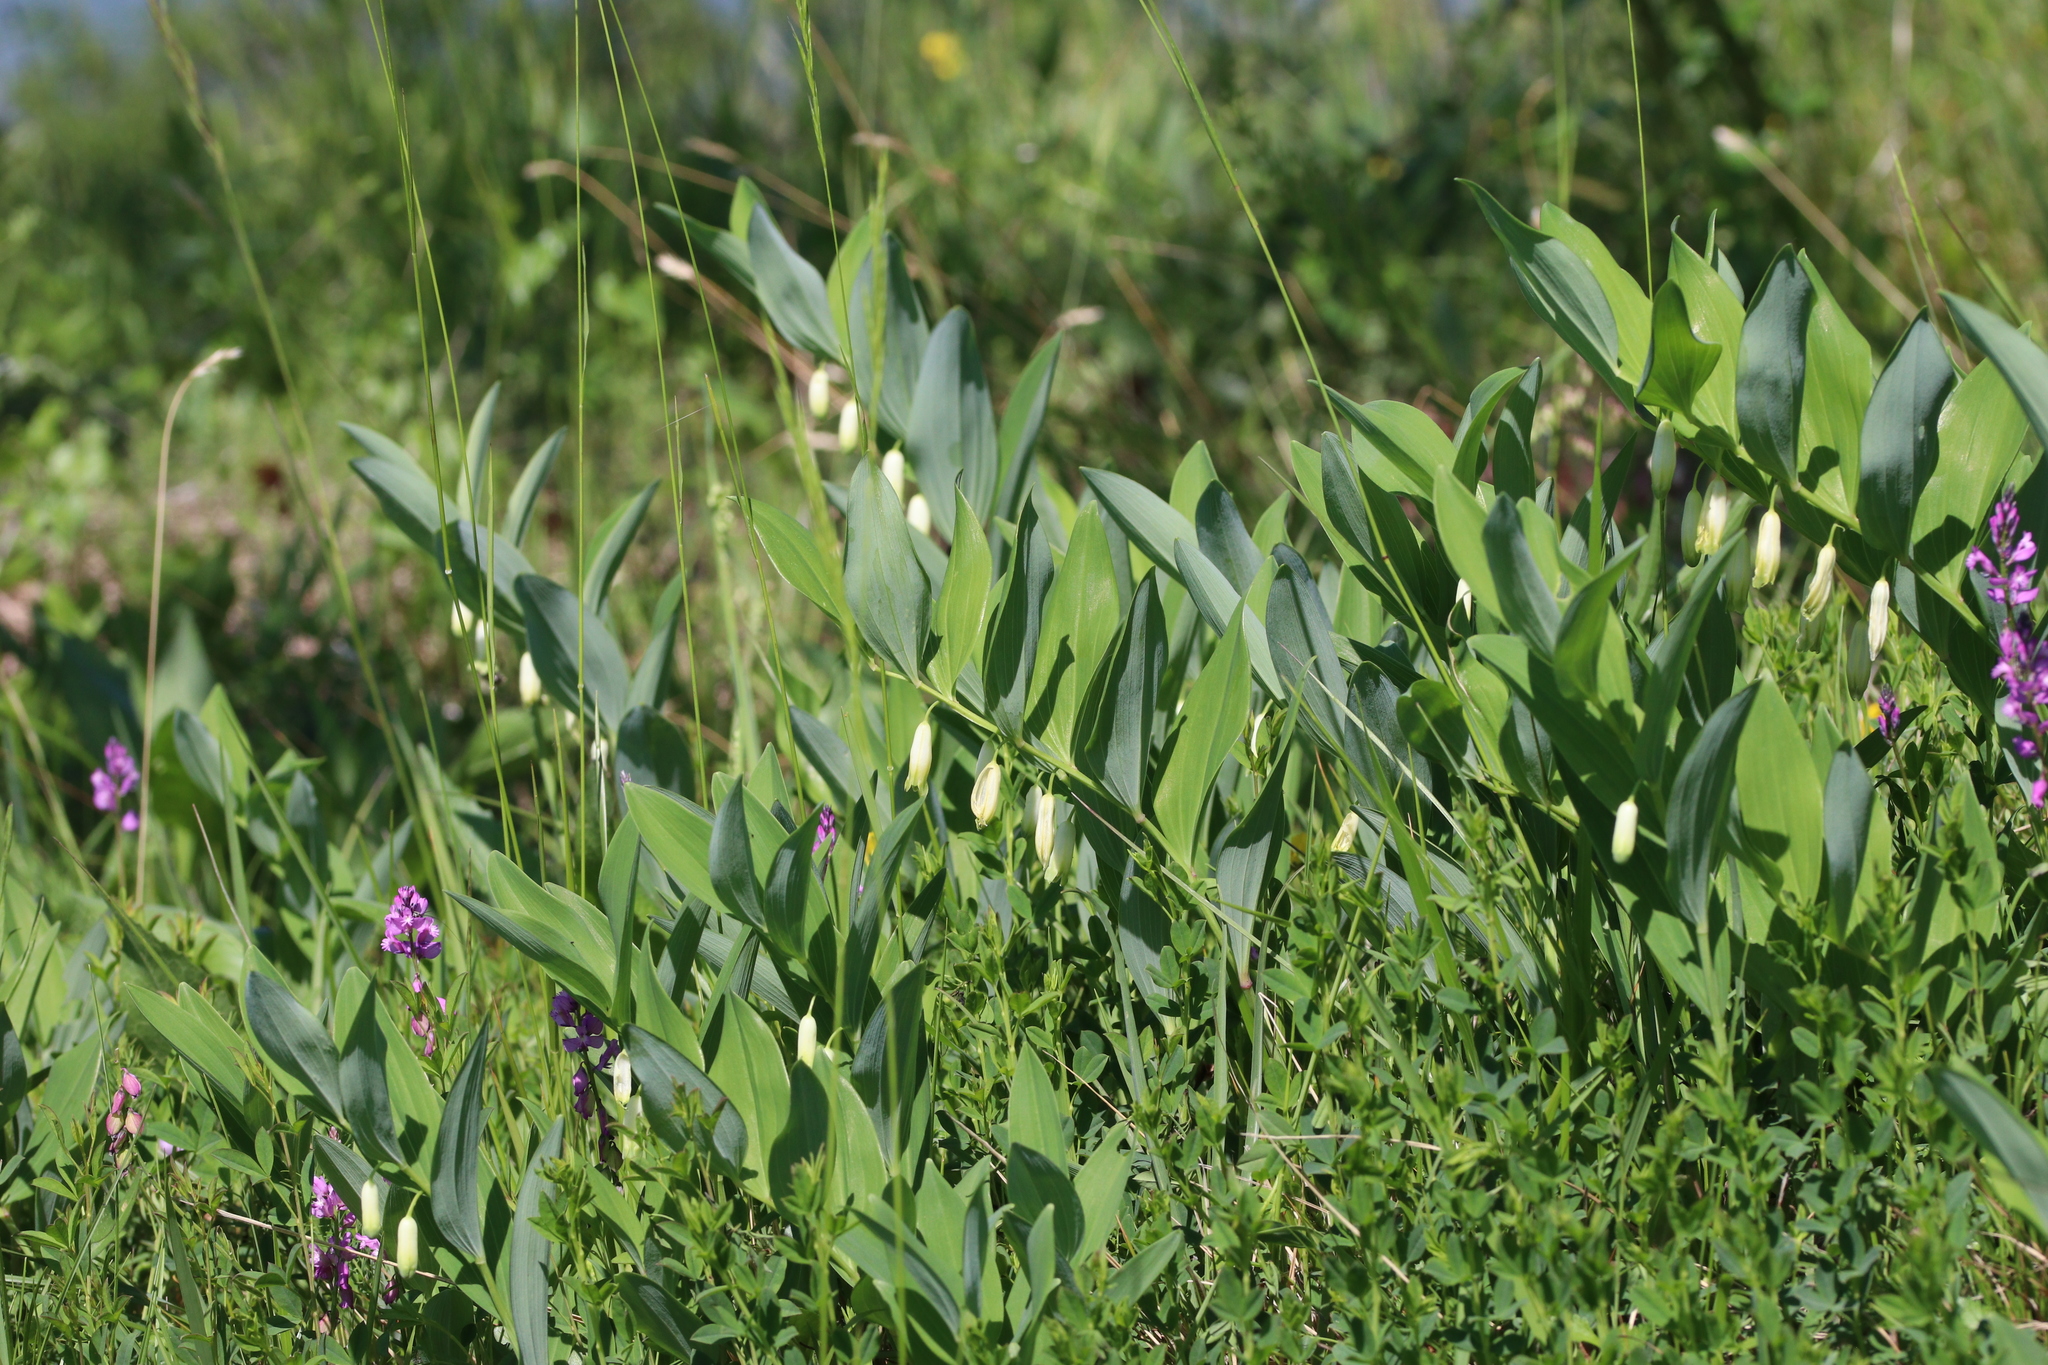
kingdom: Plantae
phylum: Tracheophyta
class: Liliopsida
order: Asparagales
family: Asparagaceae
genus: Polygonatum
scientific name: Polygonatum odoratum
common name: Angular solomon's-seal
